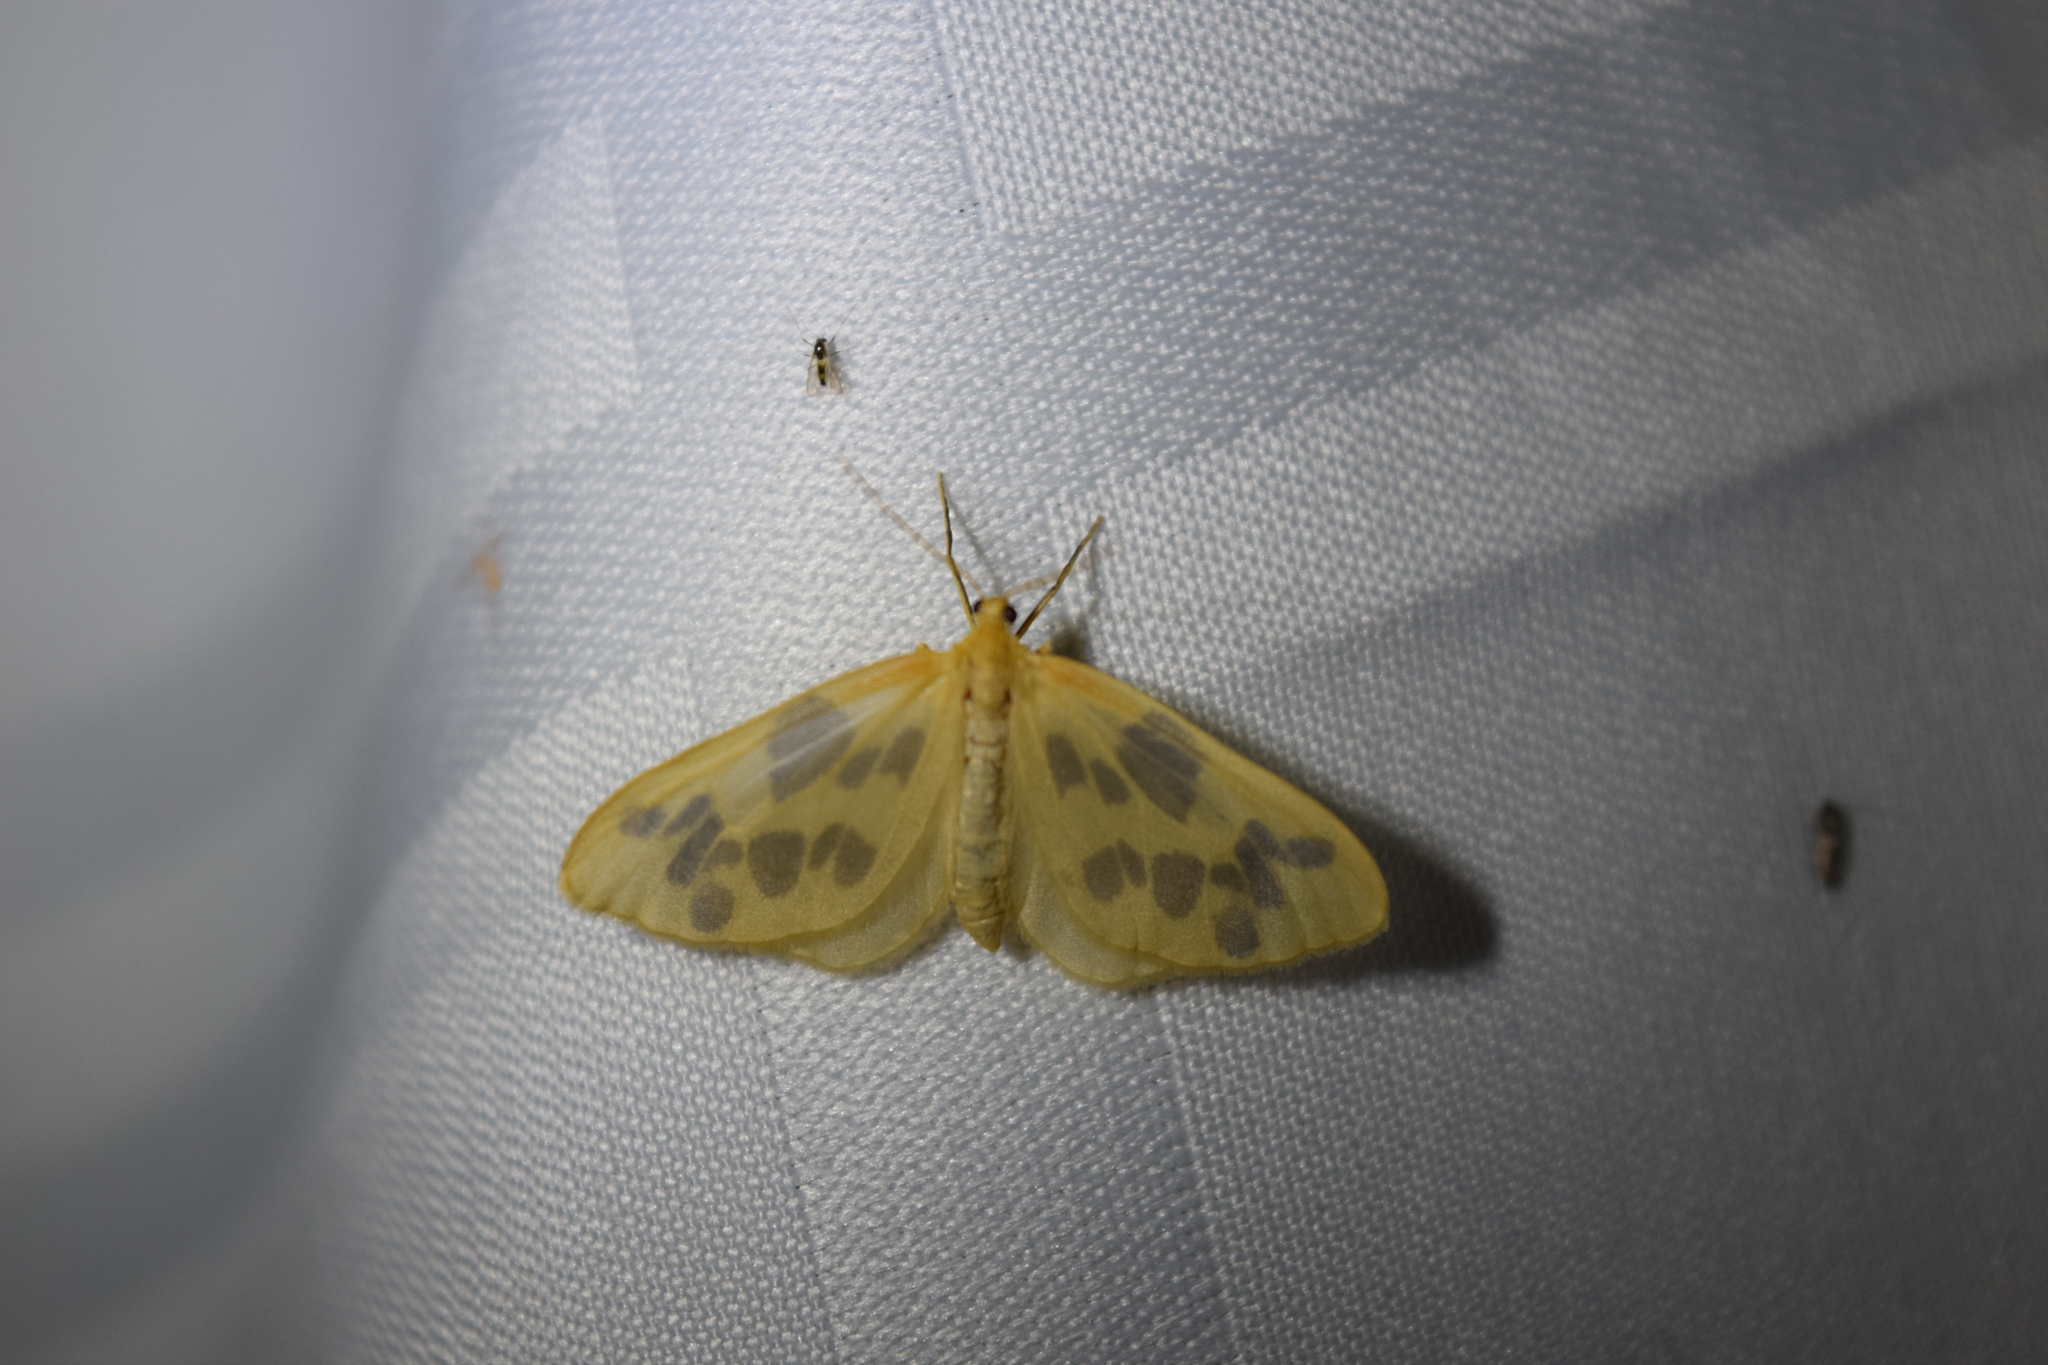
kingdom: Animalia
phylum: Arthropoda
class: Insecta
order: Lepidoptera
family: Geometridae
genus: Eubaphe
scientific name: Eubaphe mendica
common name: Beggar
